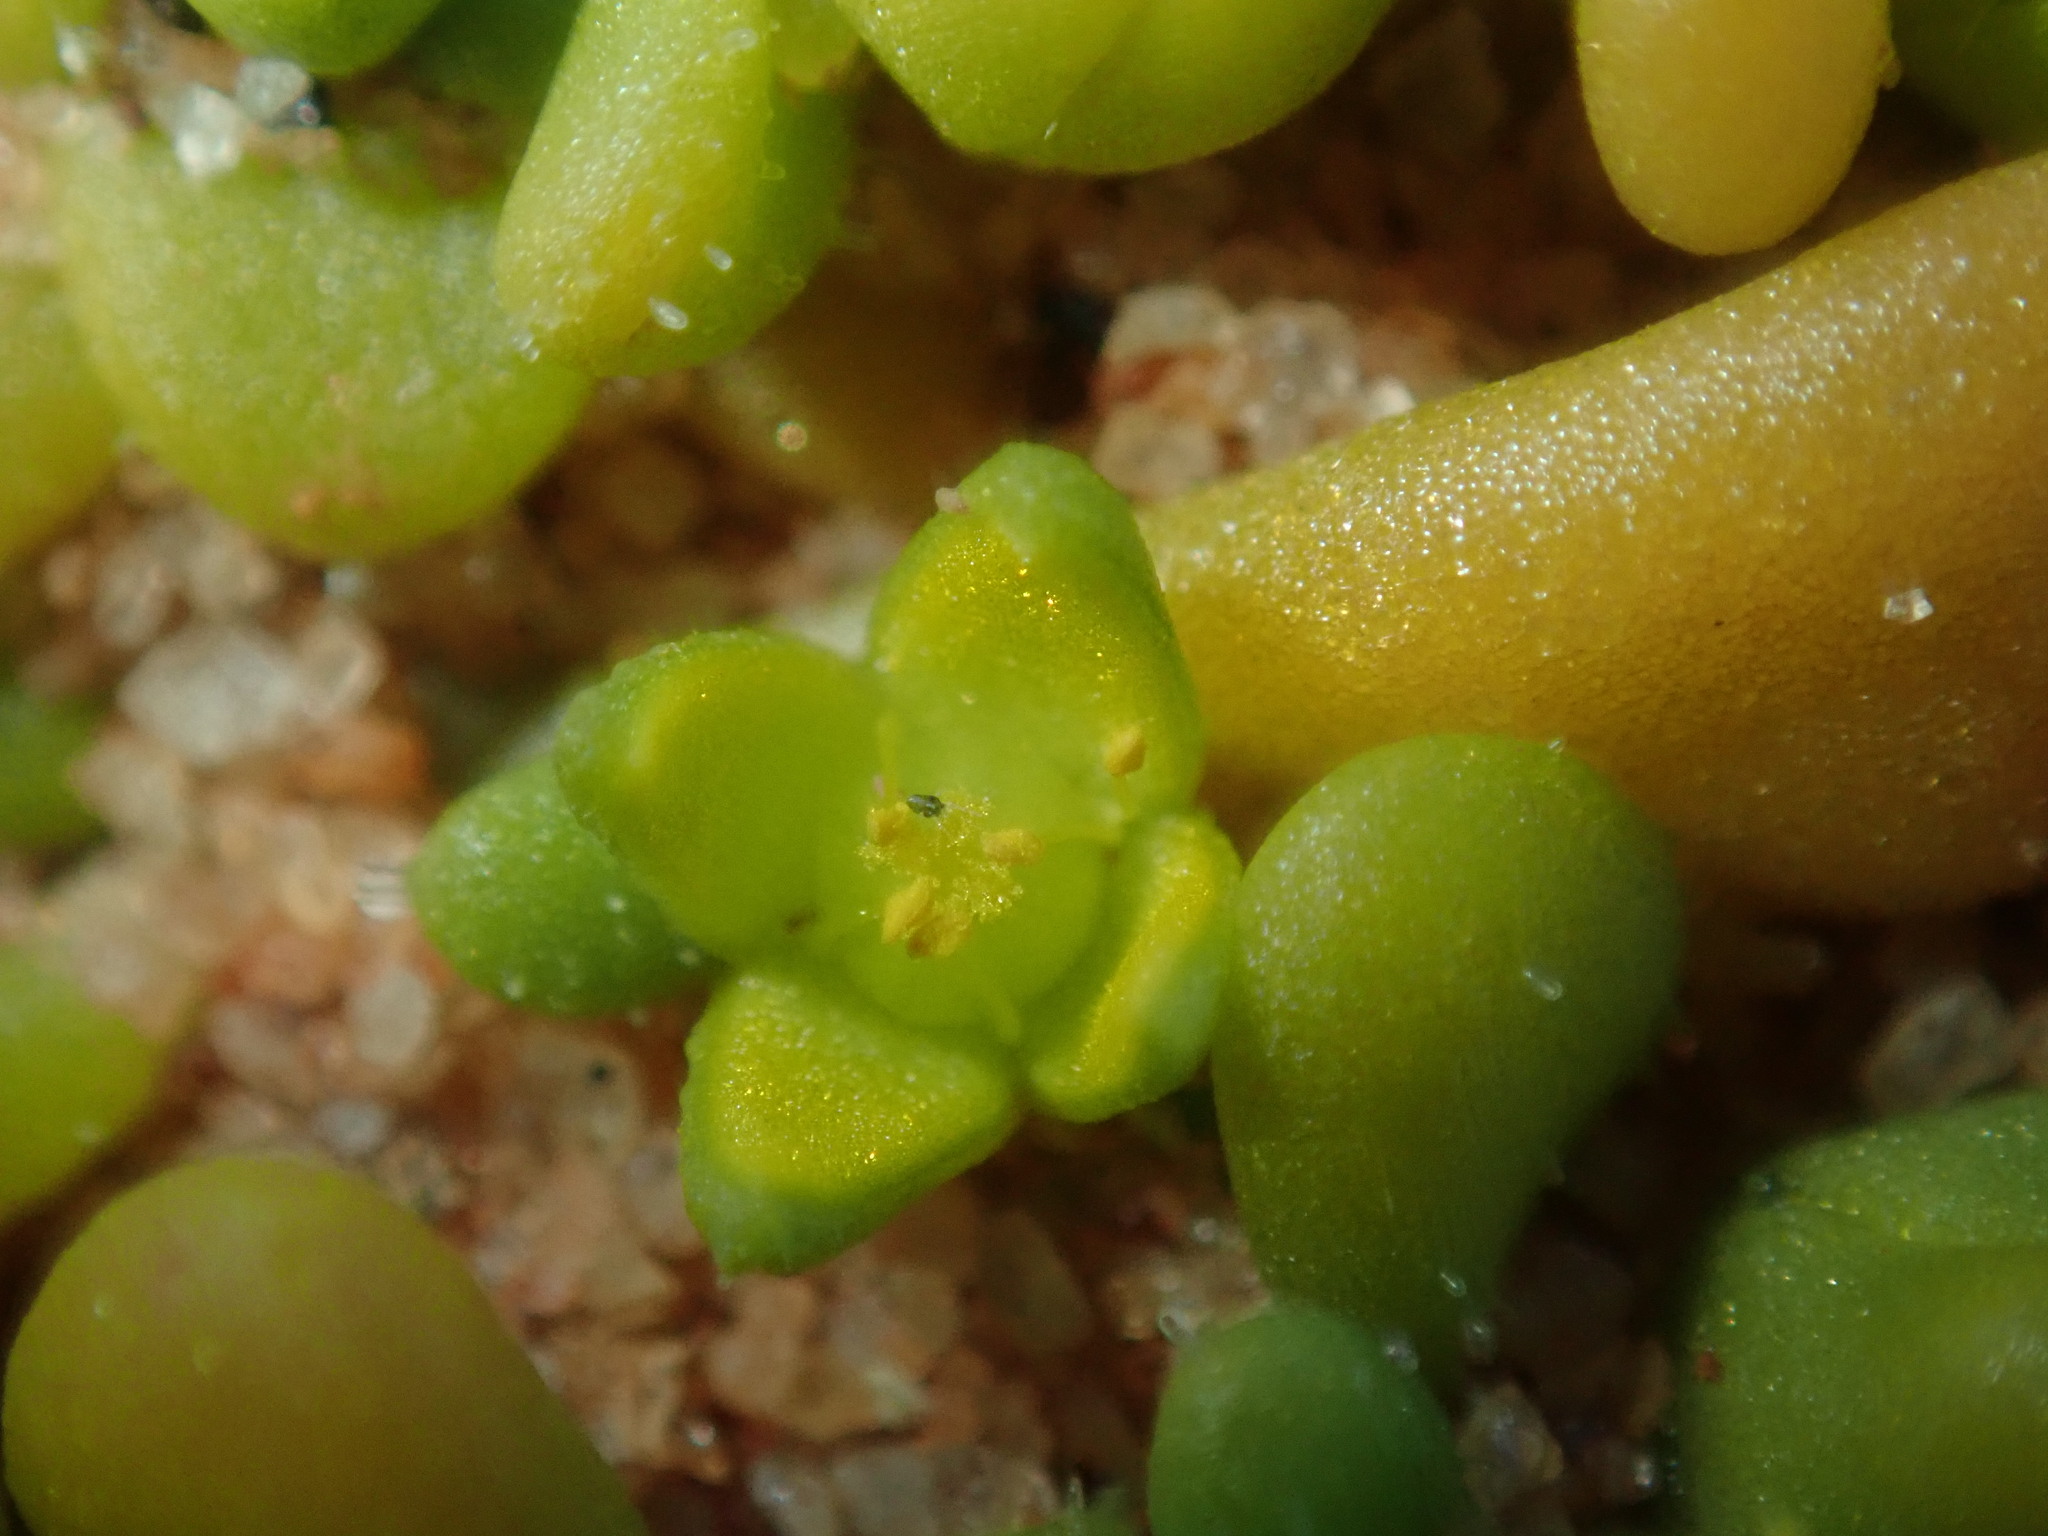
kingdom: Plantae
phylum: Tracheophyta
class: Magnoliopsida
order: Caryophyllales
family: Aizoaceae
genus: Gunniopsis
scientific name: Gunniopsis septifraga
